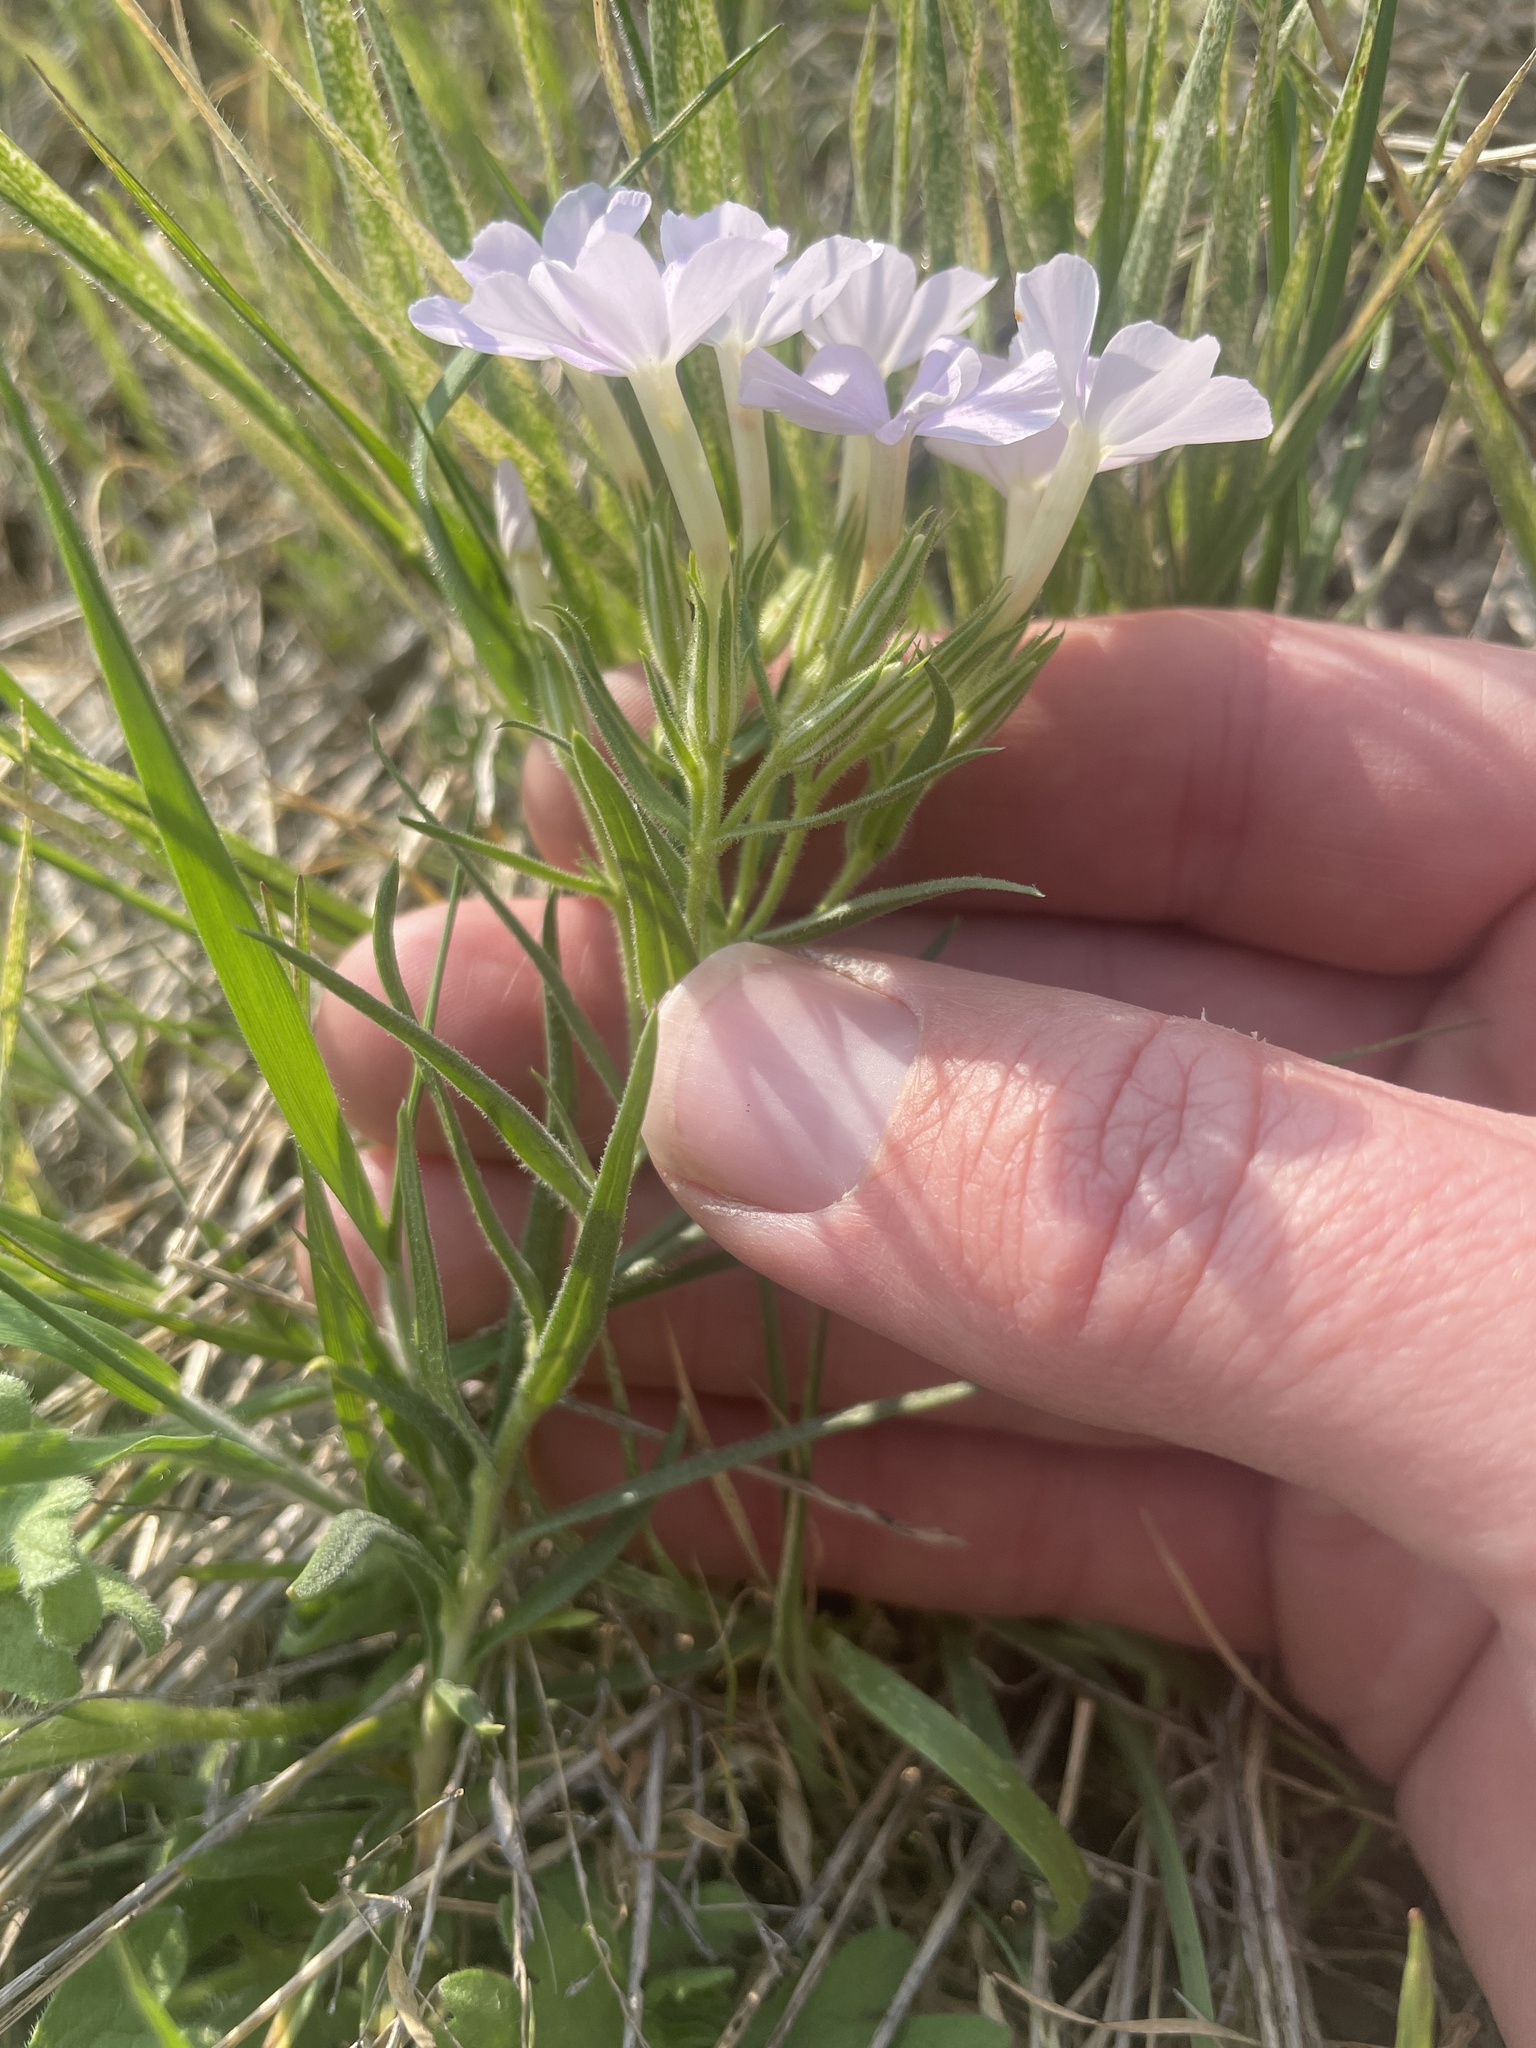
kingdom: Plantae
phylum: Tracheophyta
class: Magnoliopsida
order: Ericales
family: Polemoniaceae
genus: Phlox
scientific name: Phlox longifolia
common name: Longleaf phlox
